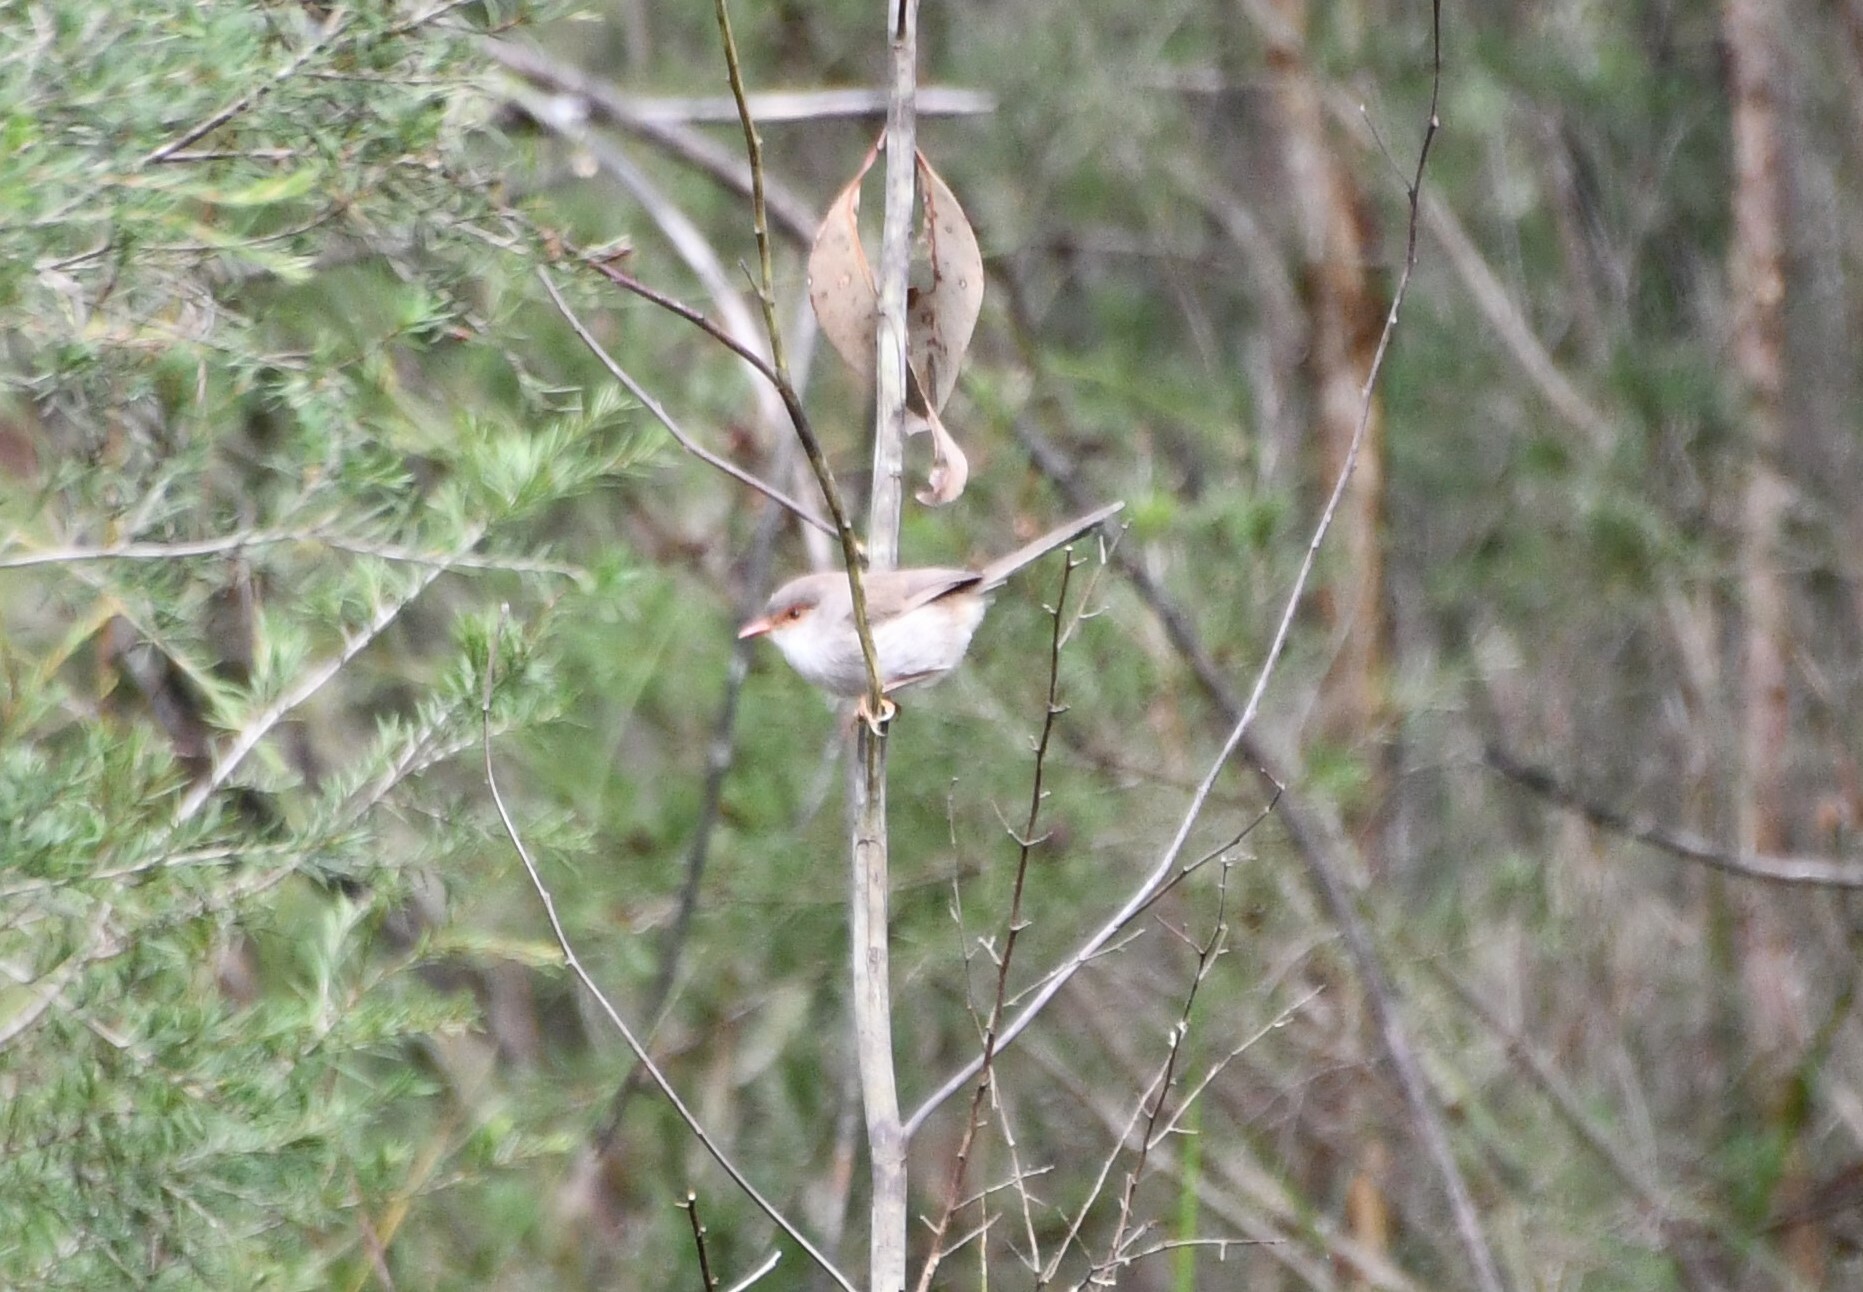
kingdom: Animalia
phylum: Chordata
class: Aves
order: Passeriformes
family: Maluridae
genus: Malurus
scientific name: Malurus cyaneus
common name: Superb fairywren
